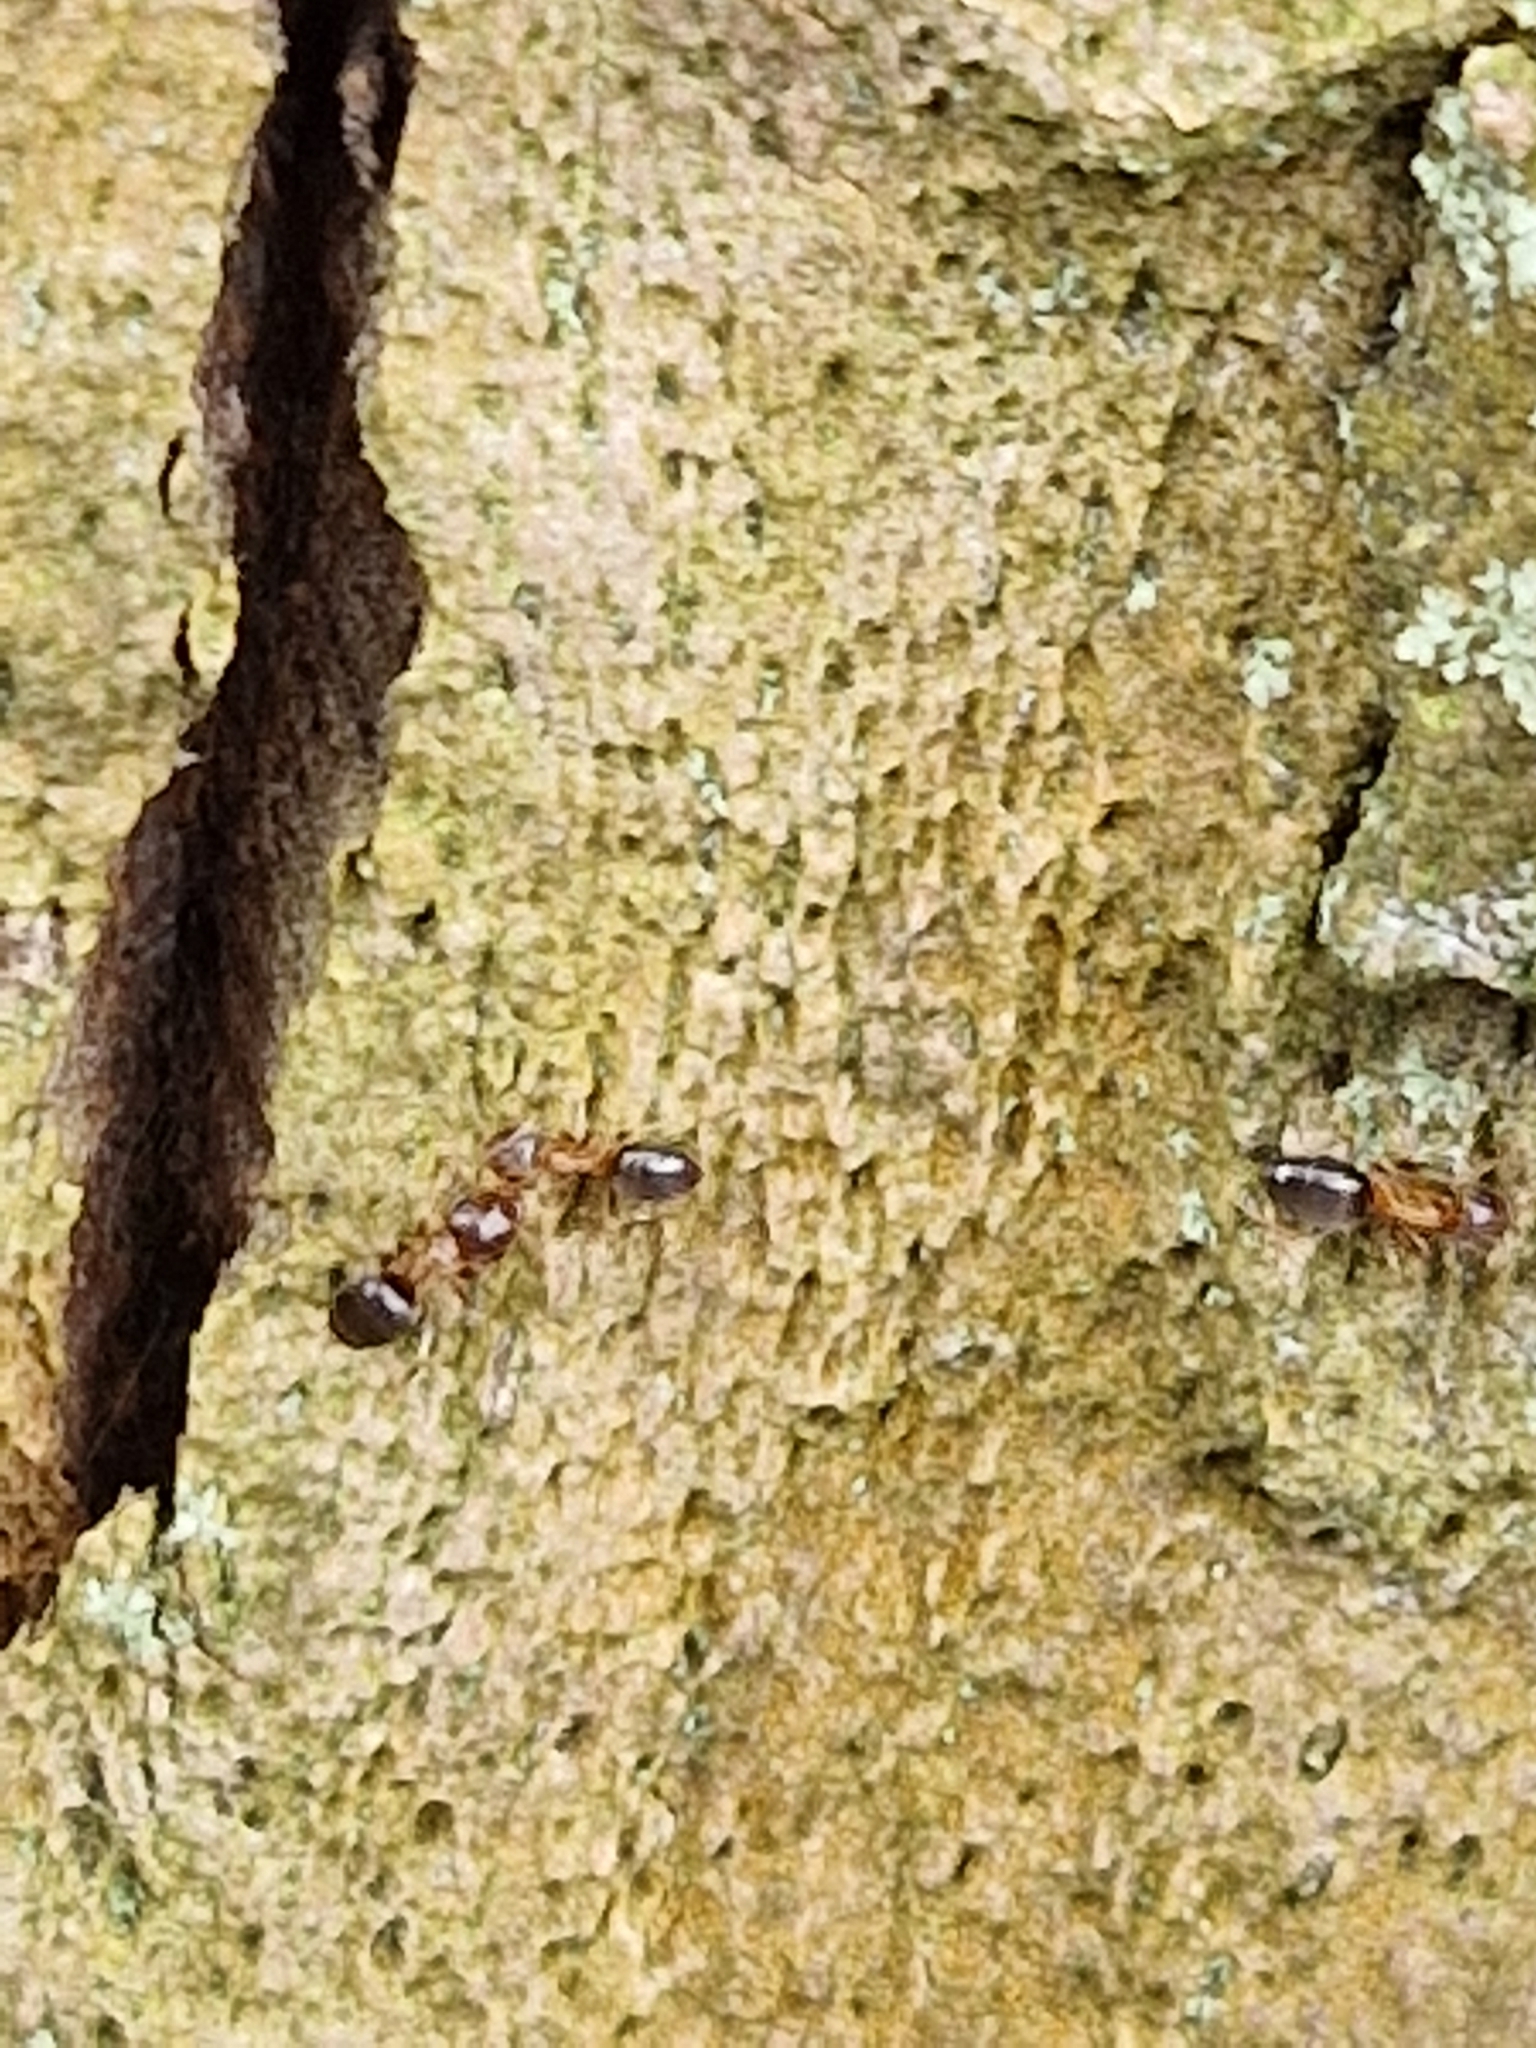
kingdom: Animalia
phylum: Arthropoda
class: Insecta
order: Hymenoptera
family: Formicidae
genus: Lasius
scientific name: Lasius brunneus
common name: Brown ant
